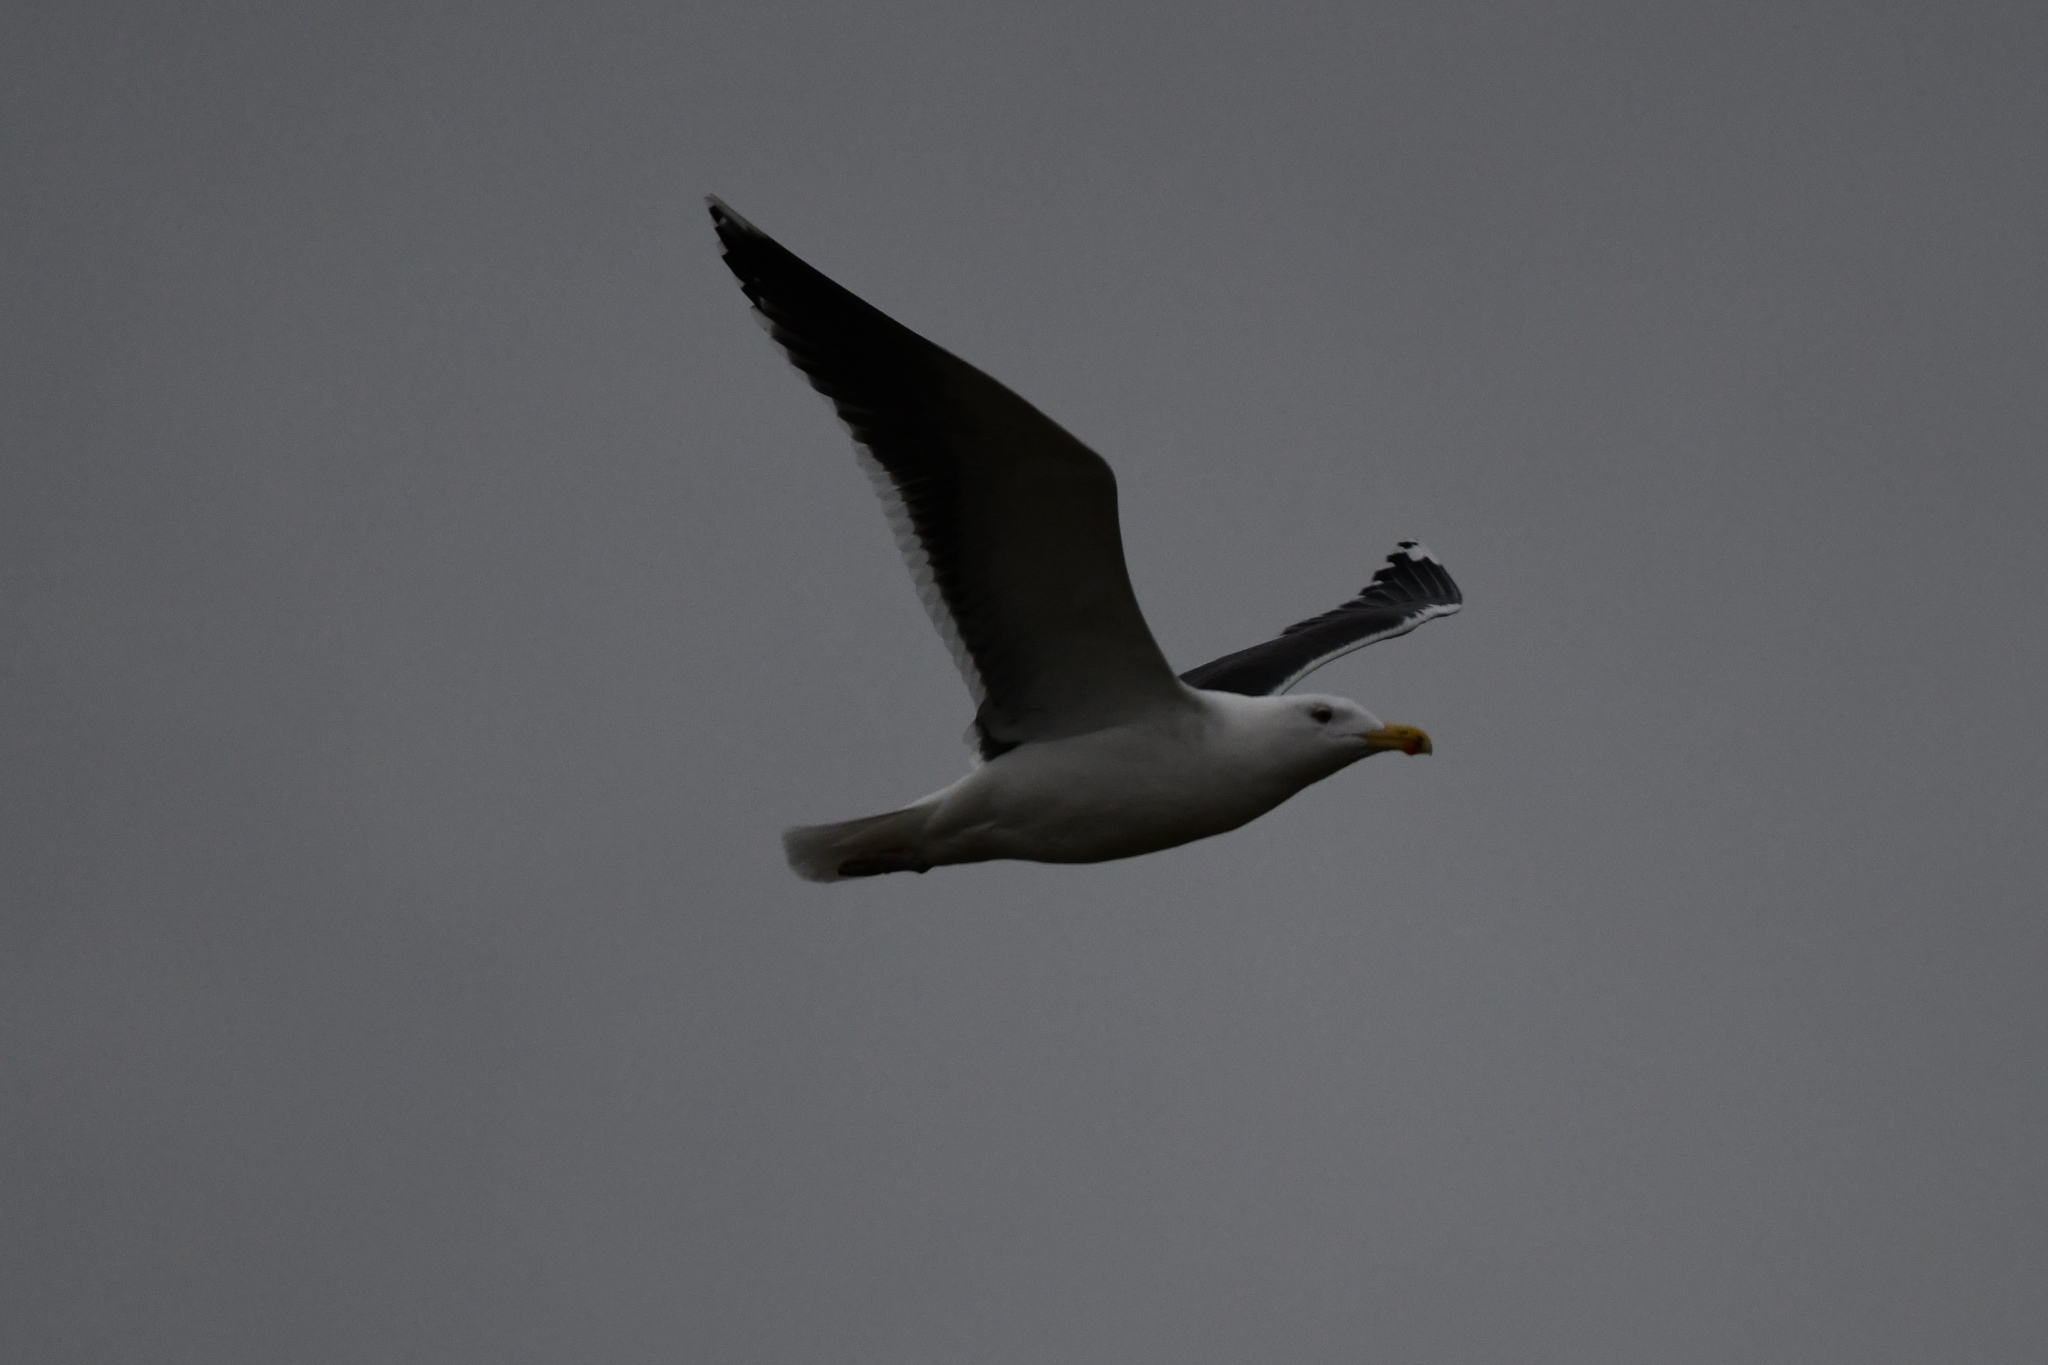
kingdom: Animalia
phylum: Chordata
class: Aves
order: Charadriiformes
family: Laridae
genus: Larus
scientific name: Larus marinus
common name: Great black-backed gull
